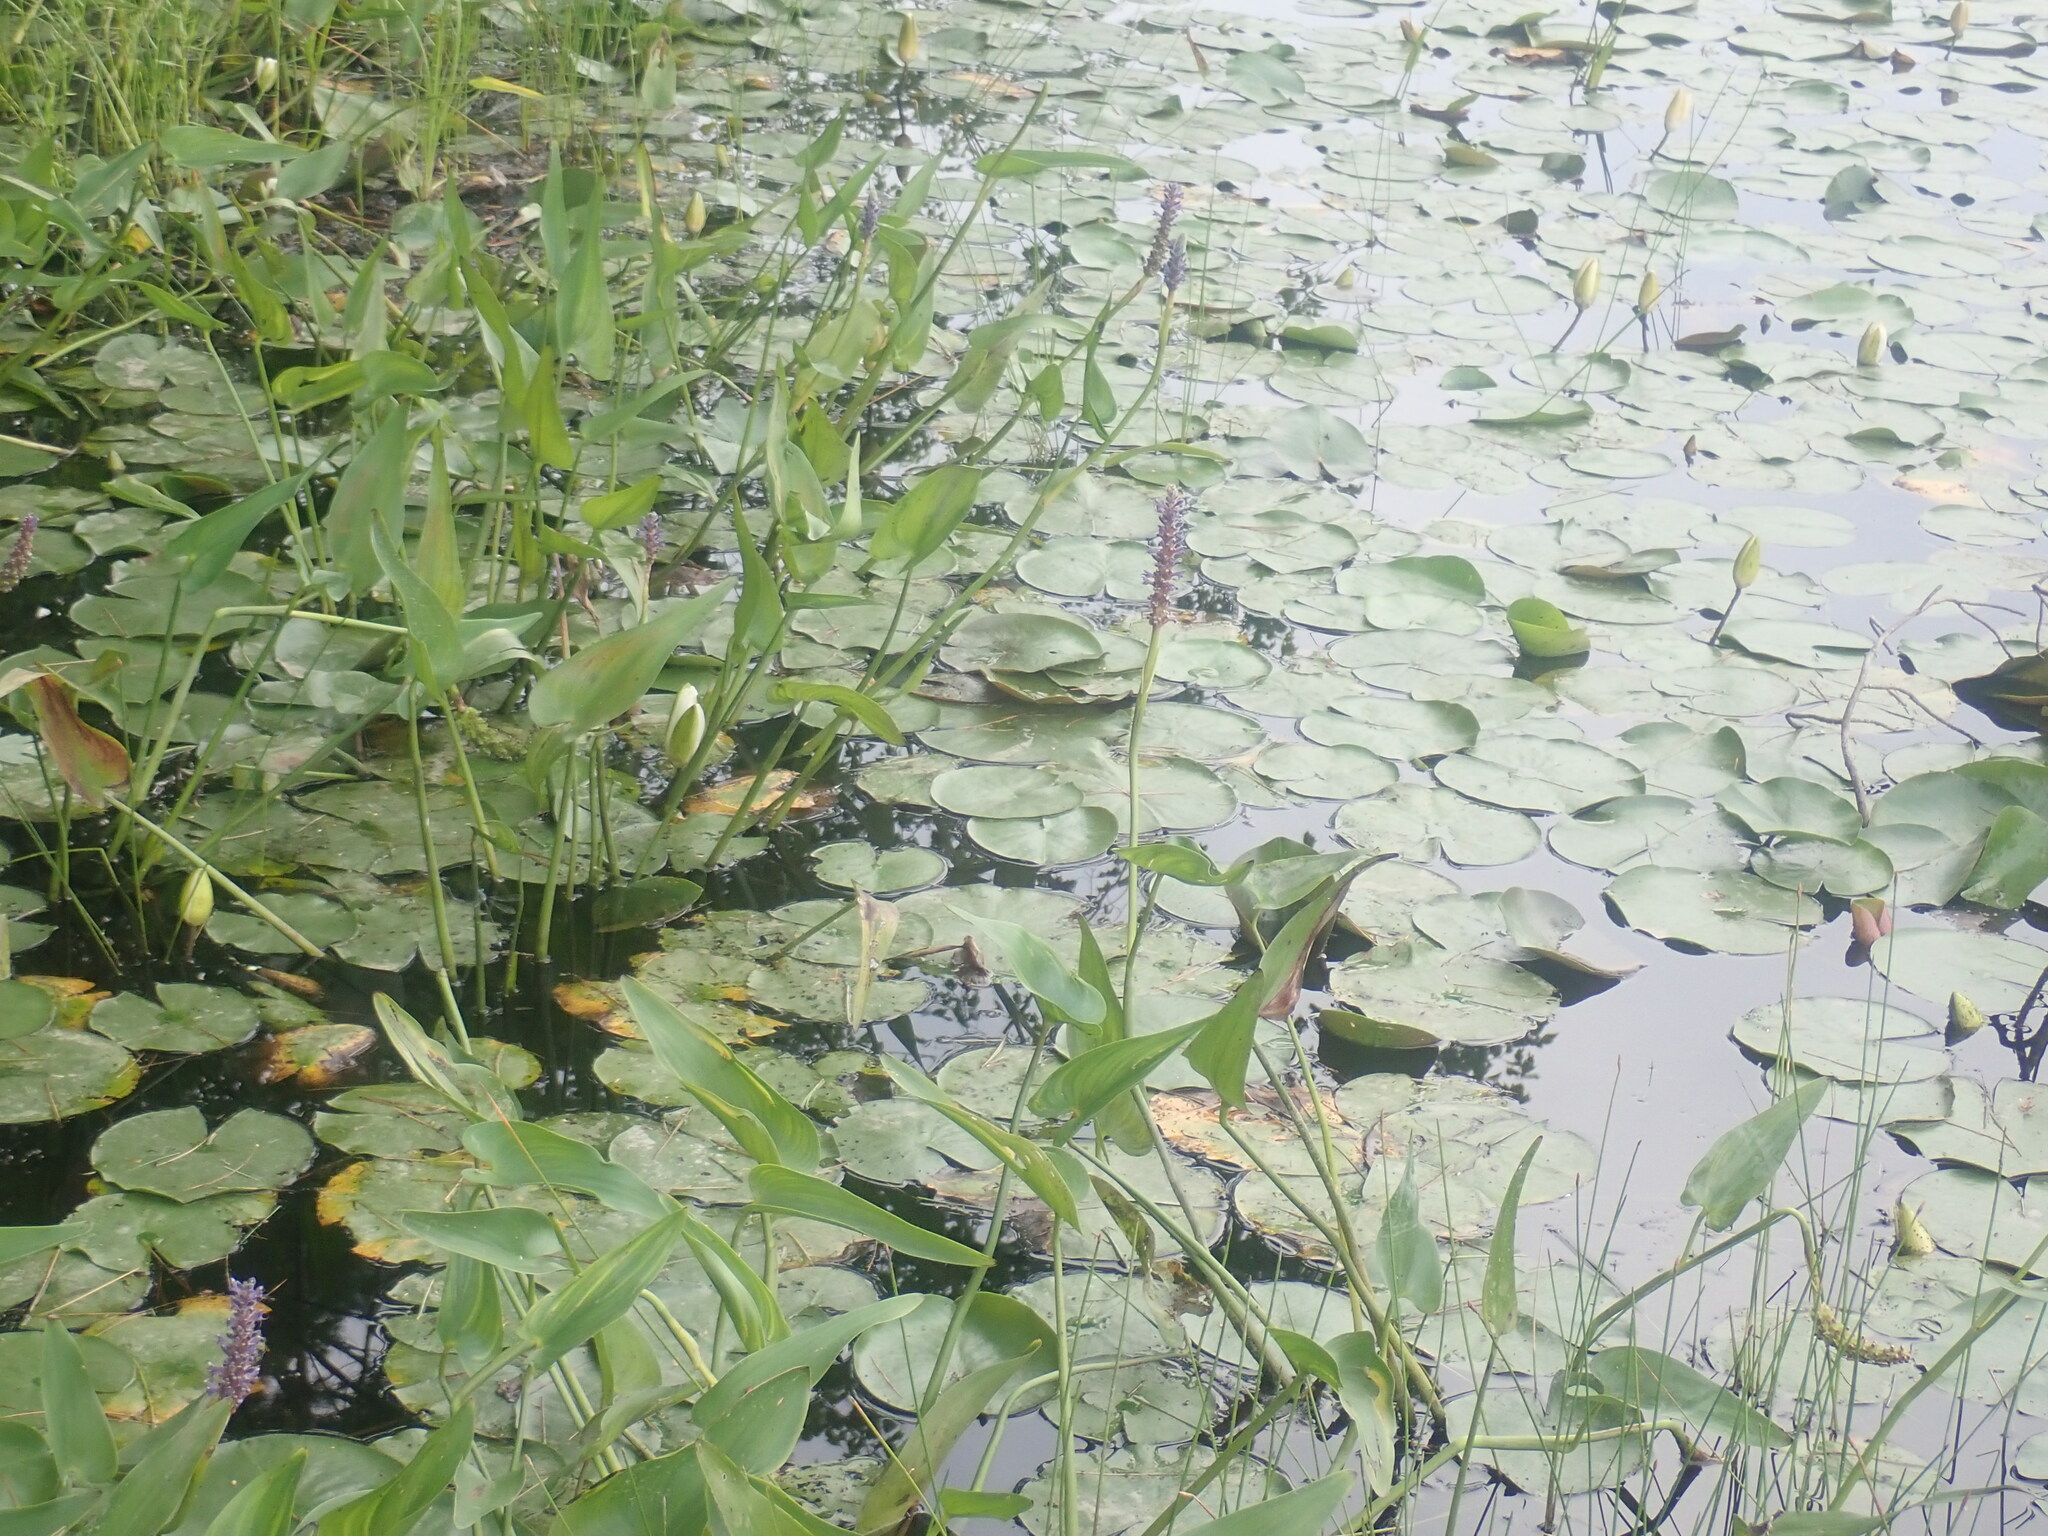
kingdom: Plantae
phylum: Tracheophyta
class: Liliopsida
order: Commelinales
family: Pontederiaceae
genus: Pontederia
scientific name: Pontederia cordata
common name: Pickerelweed
